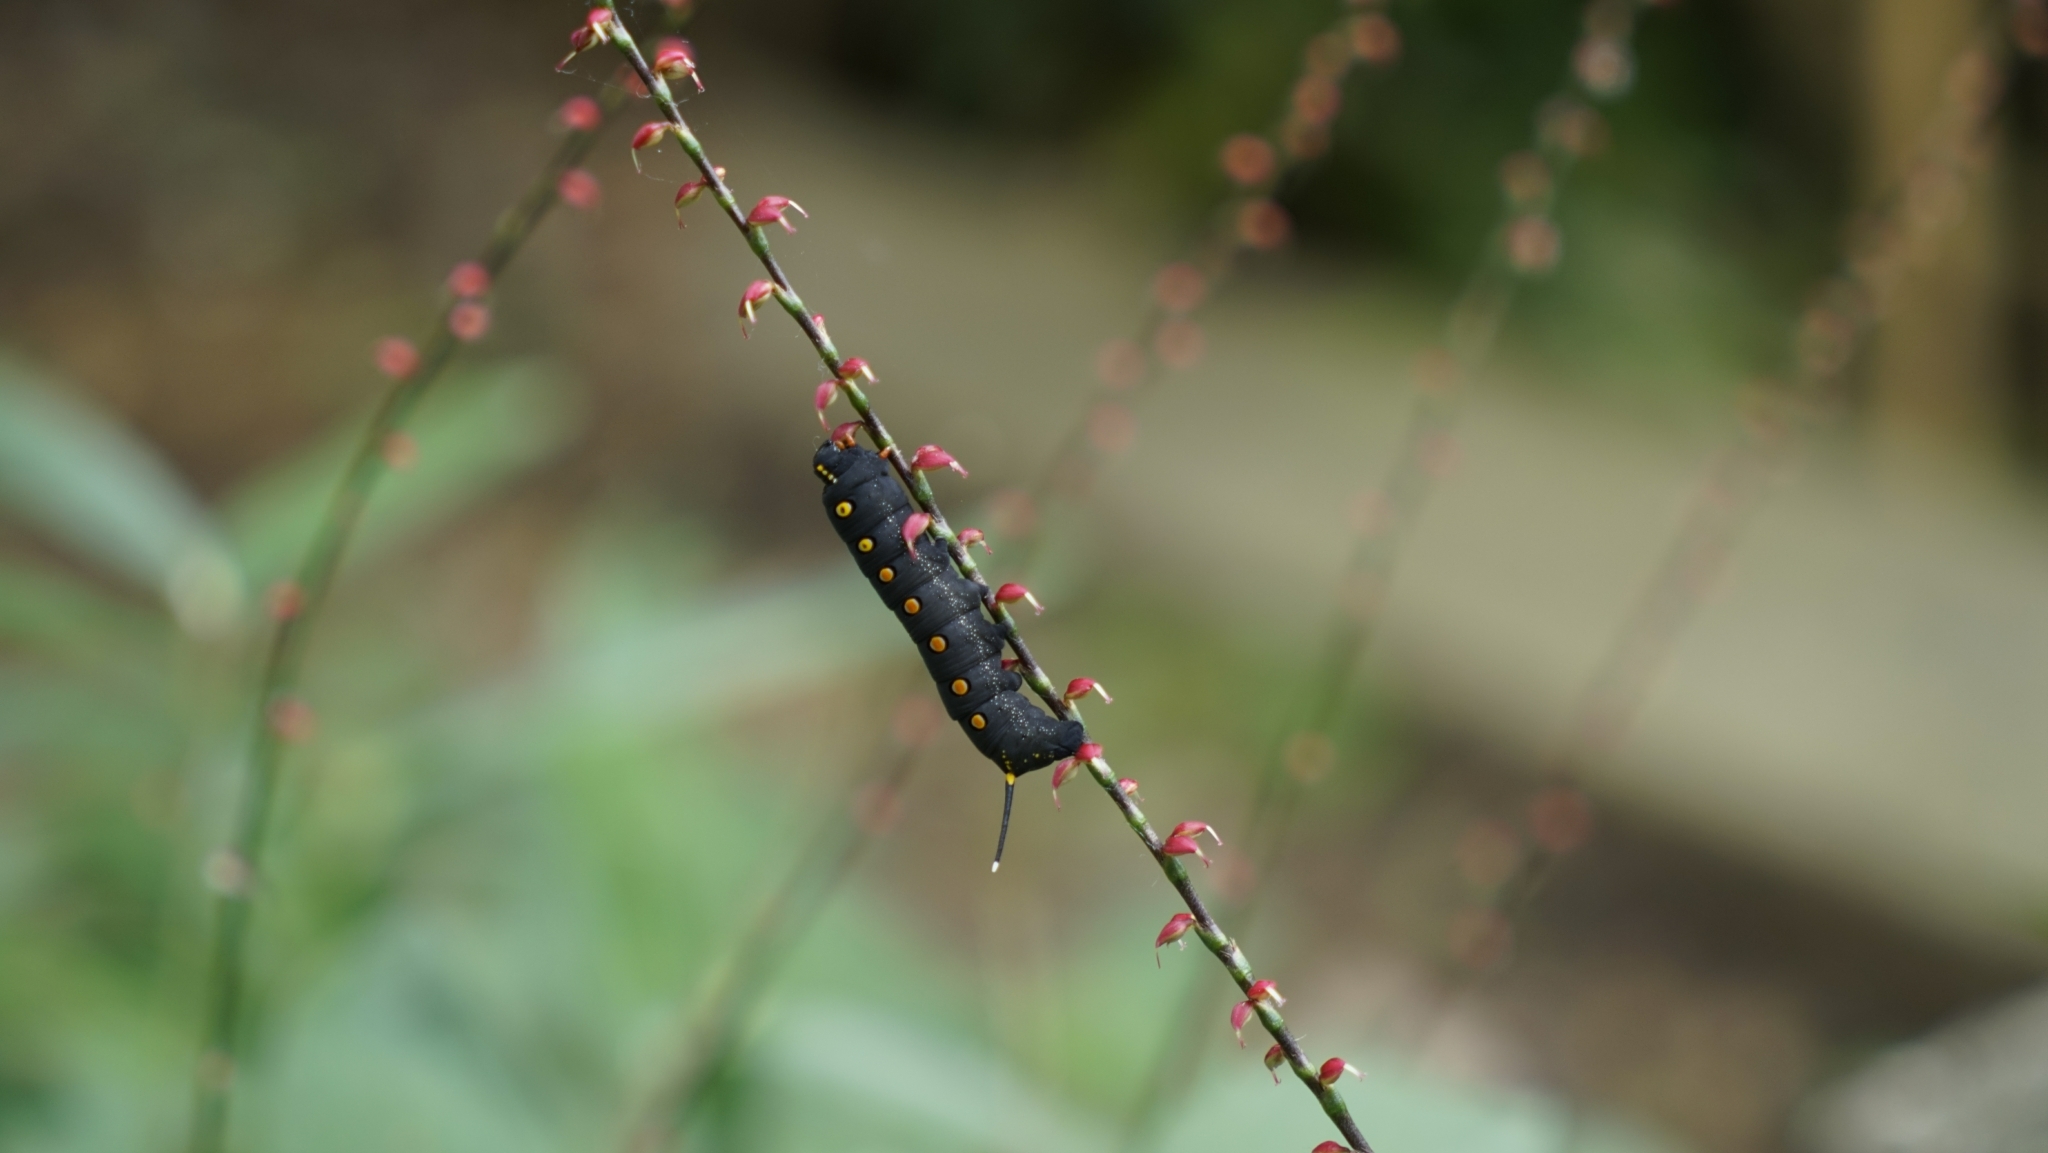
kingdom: Animalia
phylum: Arthropoda
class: Insecta
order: Lepidoptera
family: Sphingidae
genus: Theretra
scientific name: Theretra oldenlandiae
